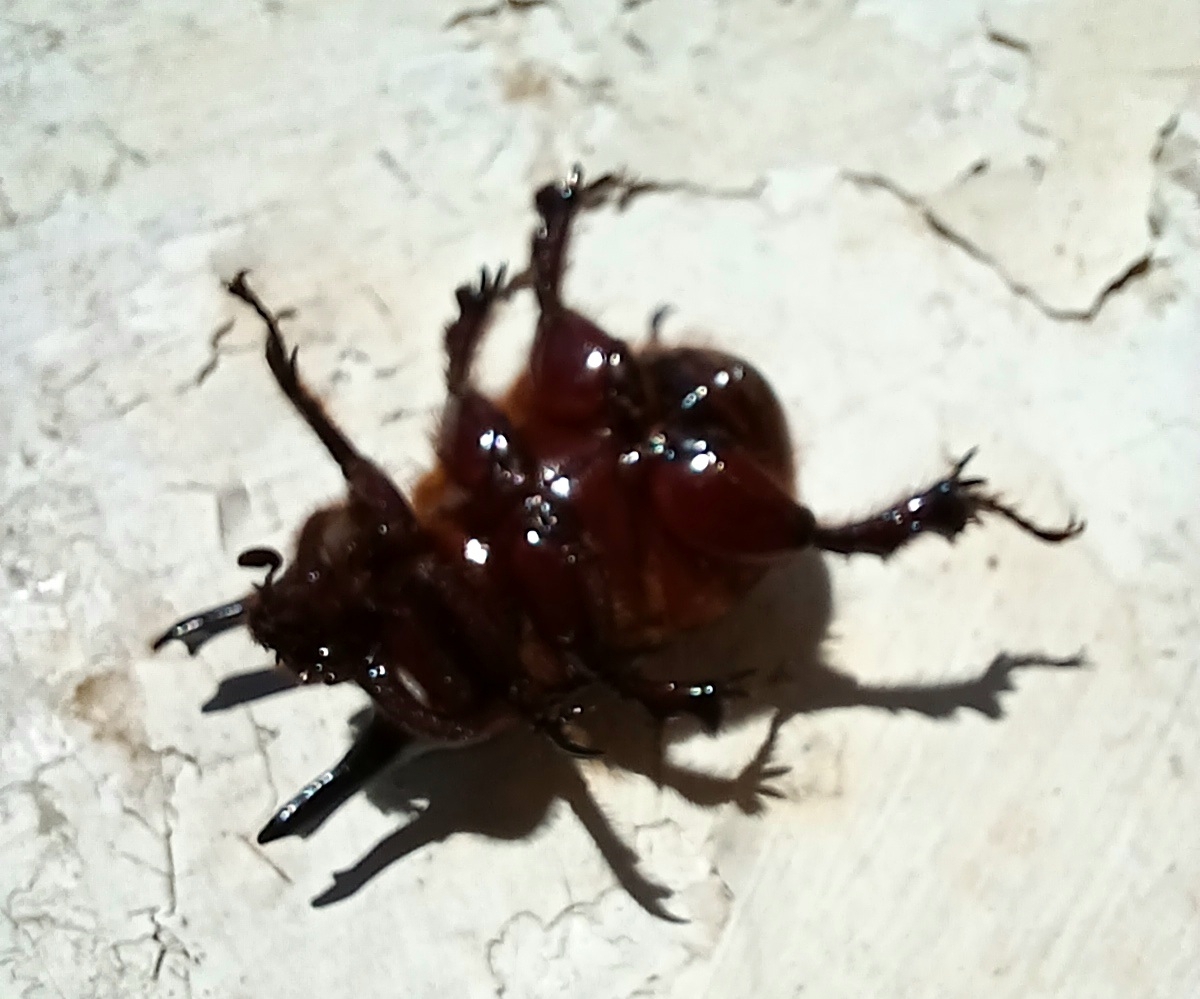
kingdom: Animalia
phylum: Arthropoda
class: Insecta
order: Coleoptera
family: Scarabaeidae
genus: Bothynus
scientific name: Bothynus entellus
